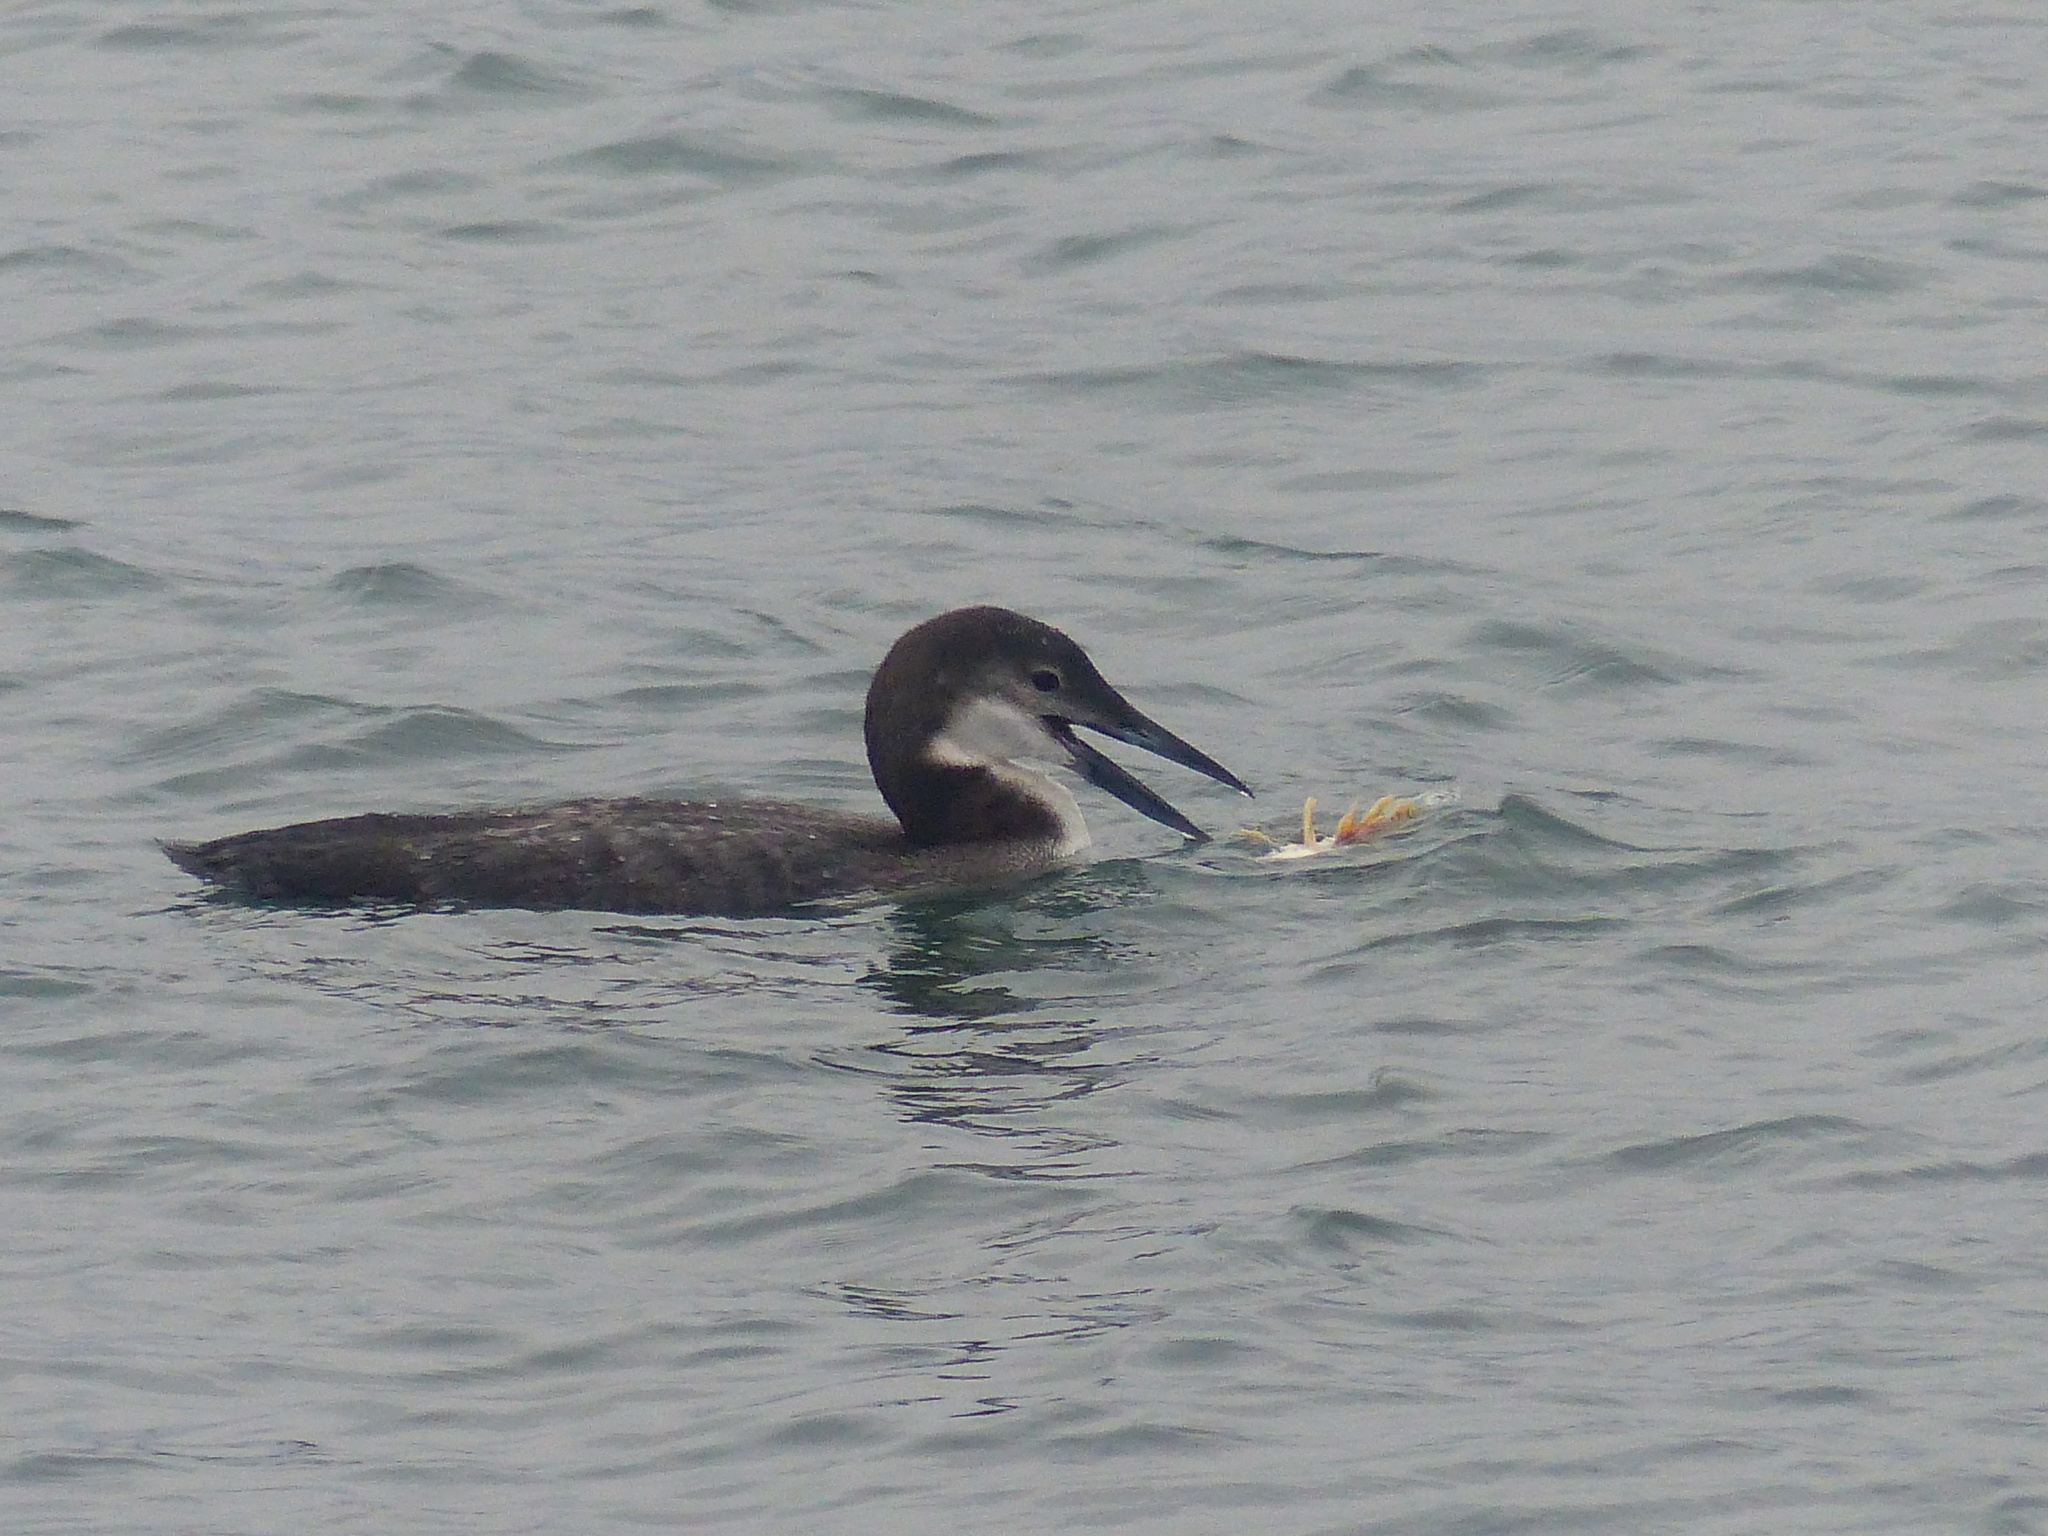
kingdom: Animalia
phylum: Chordata
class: Aves
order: Gaviiformes
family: Gaviidae
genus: Gavia
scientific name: Gavia immer
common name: Common loon
